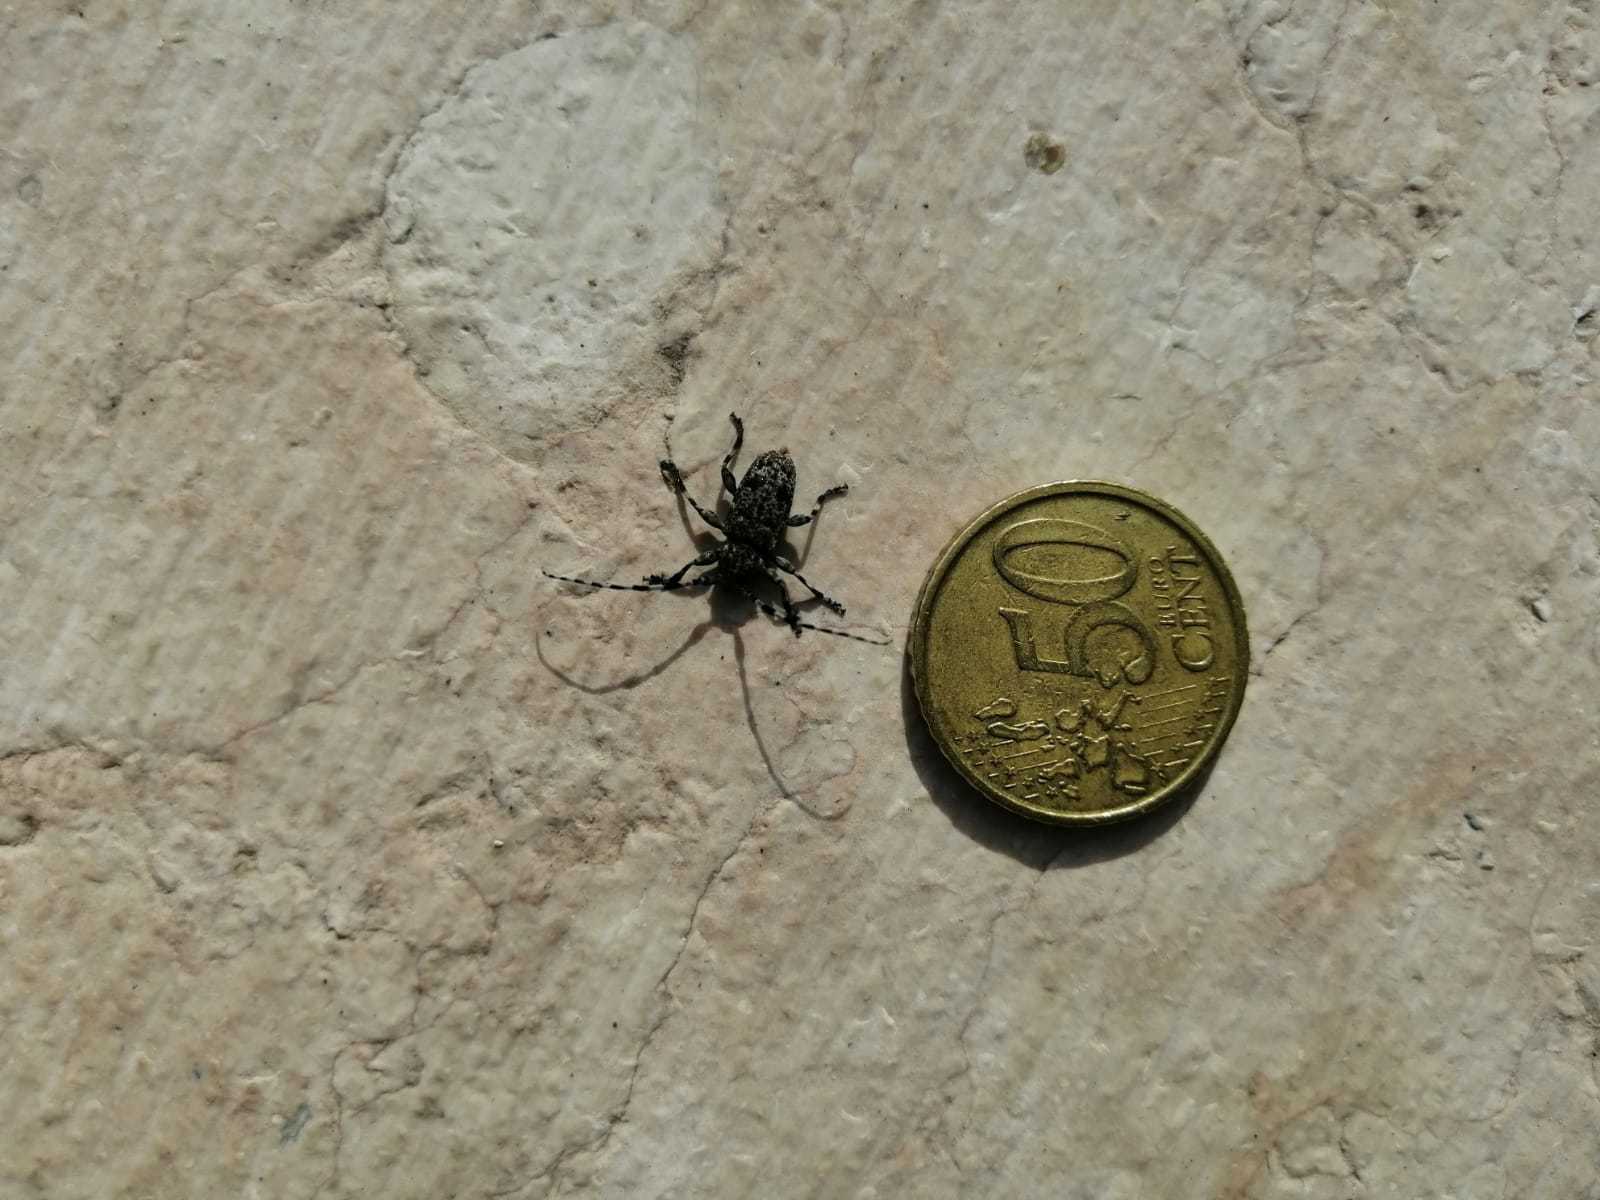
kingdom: Animalia
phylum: Arthropoda
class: Insecta
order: Coleoptera
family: Cerambycidae
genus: Aegomorphus
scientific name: Aegomorphus clavipes
